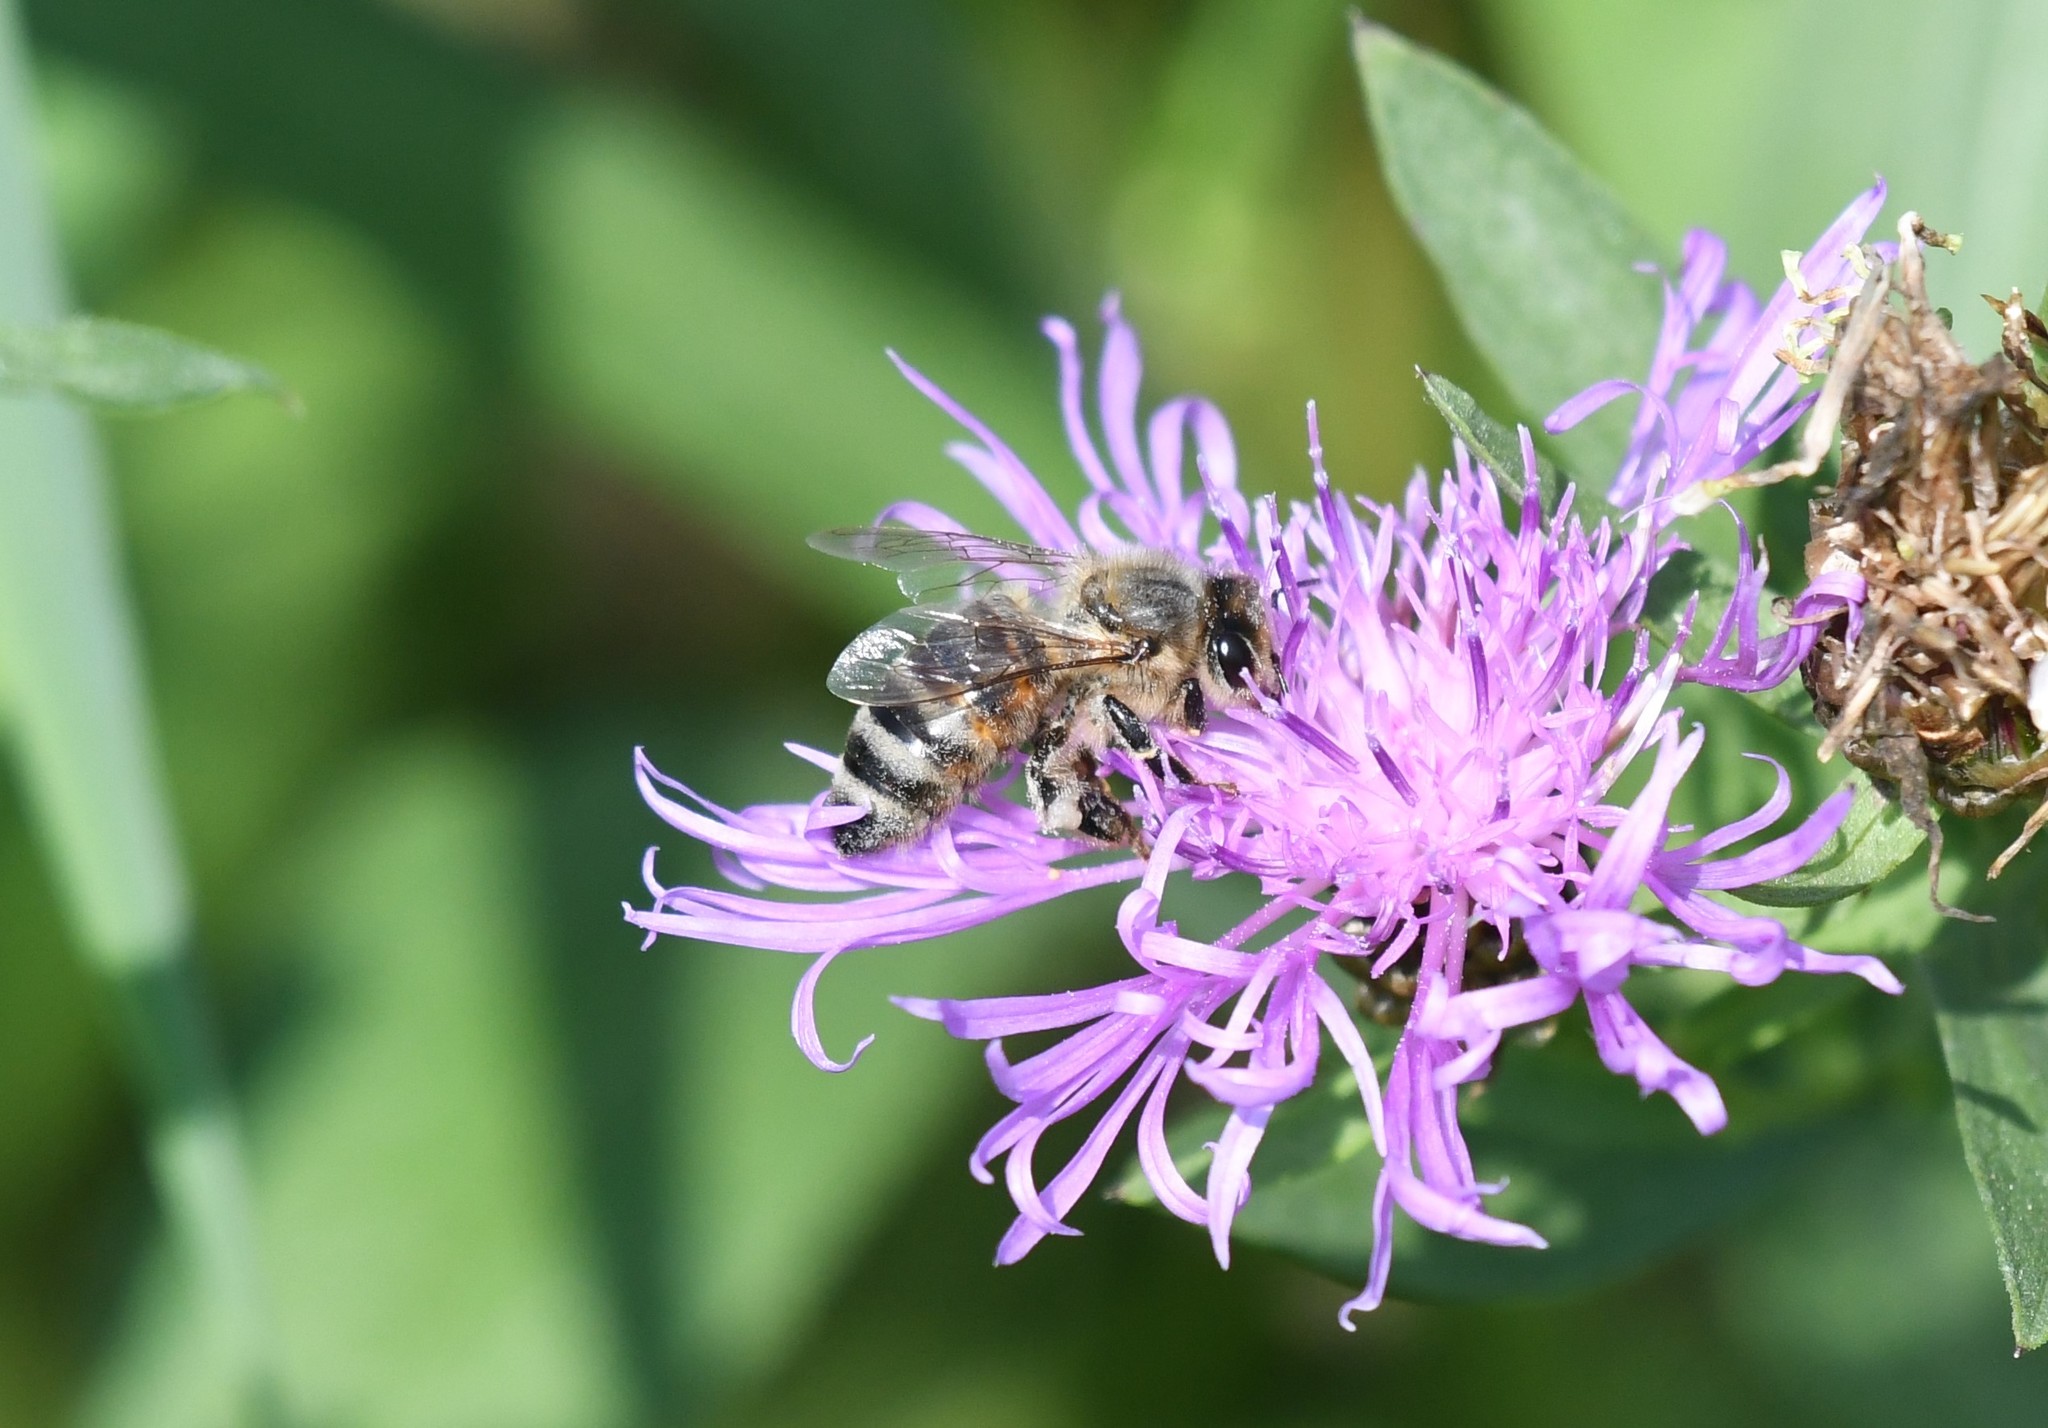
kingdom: Animalia
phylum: Arthropoda
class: Insecta
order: Hymenoptera
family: Apidae
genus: Apis
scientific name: Apis mellifera
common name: Honey bee
